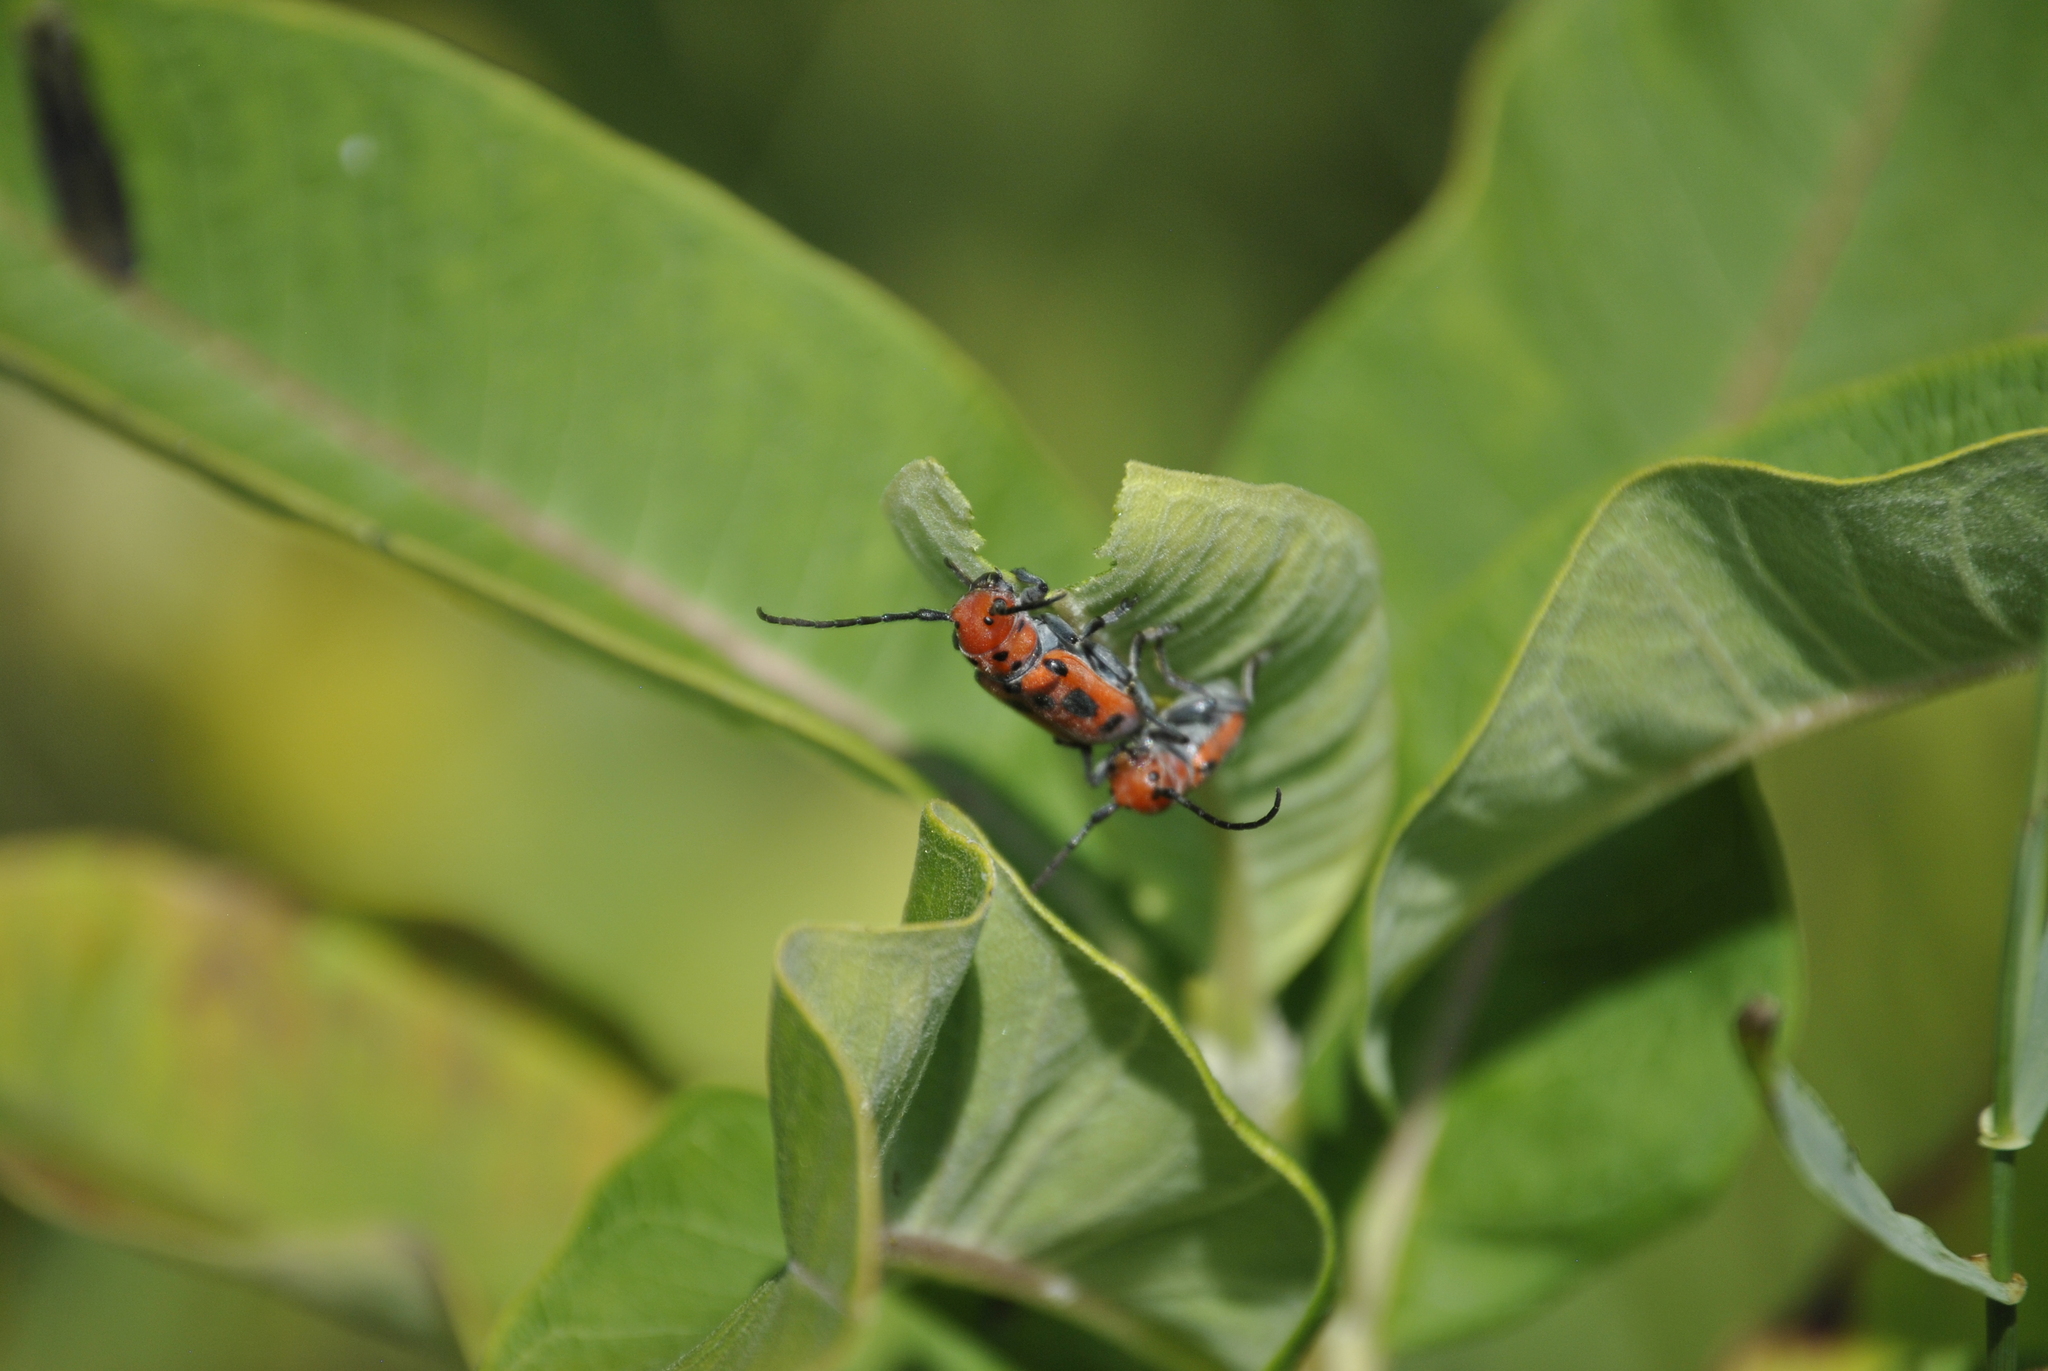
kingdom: Animalia
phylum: Arthropoda
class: Insecta
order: Coleoptera
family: Cerambycidae
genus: Tetraopes
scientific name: Tetraopes tetrophthalmus
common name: Red milkweed beetle
